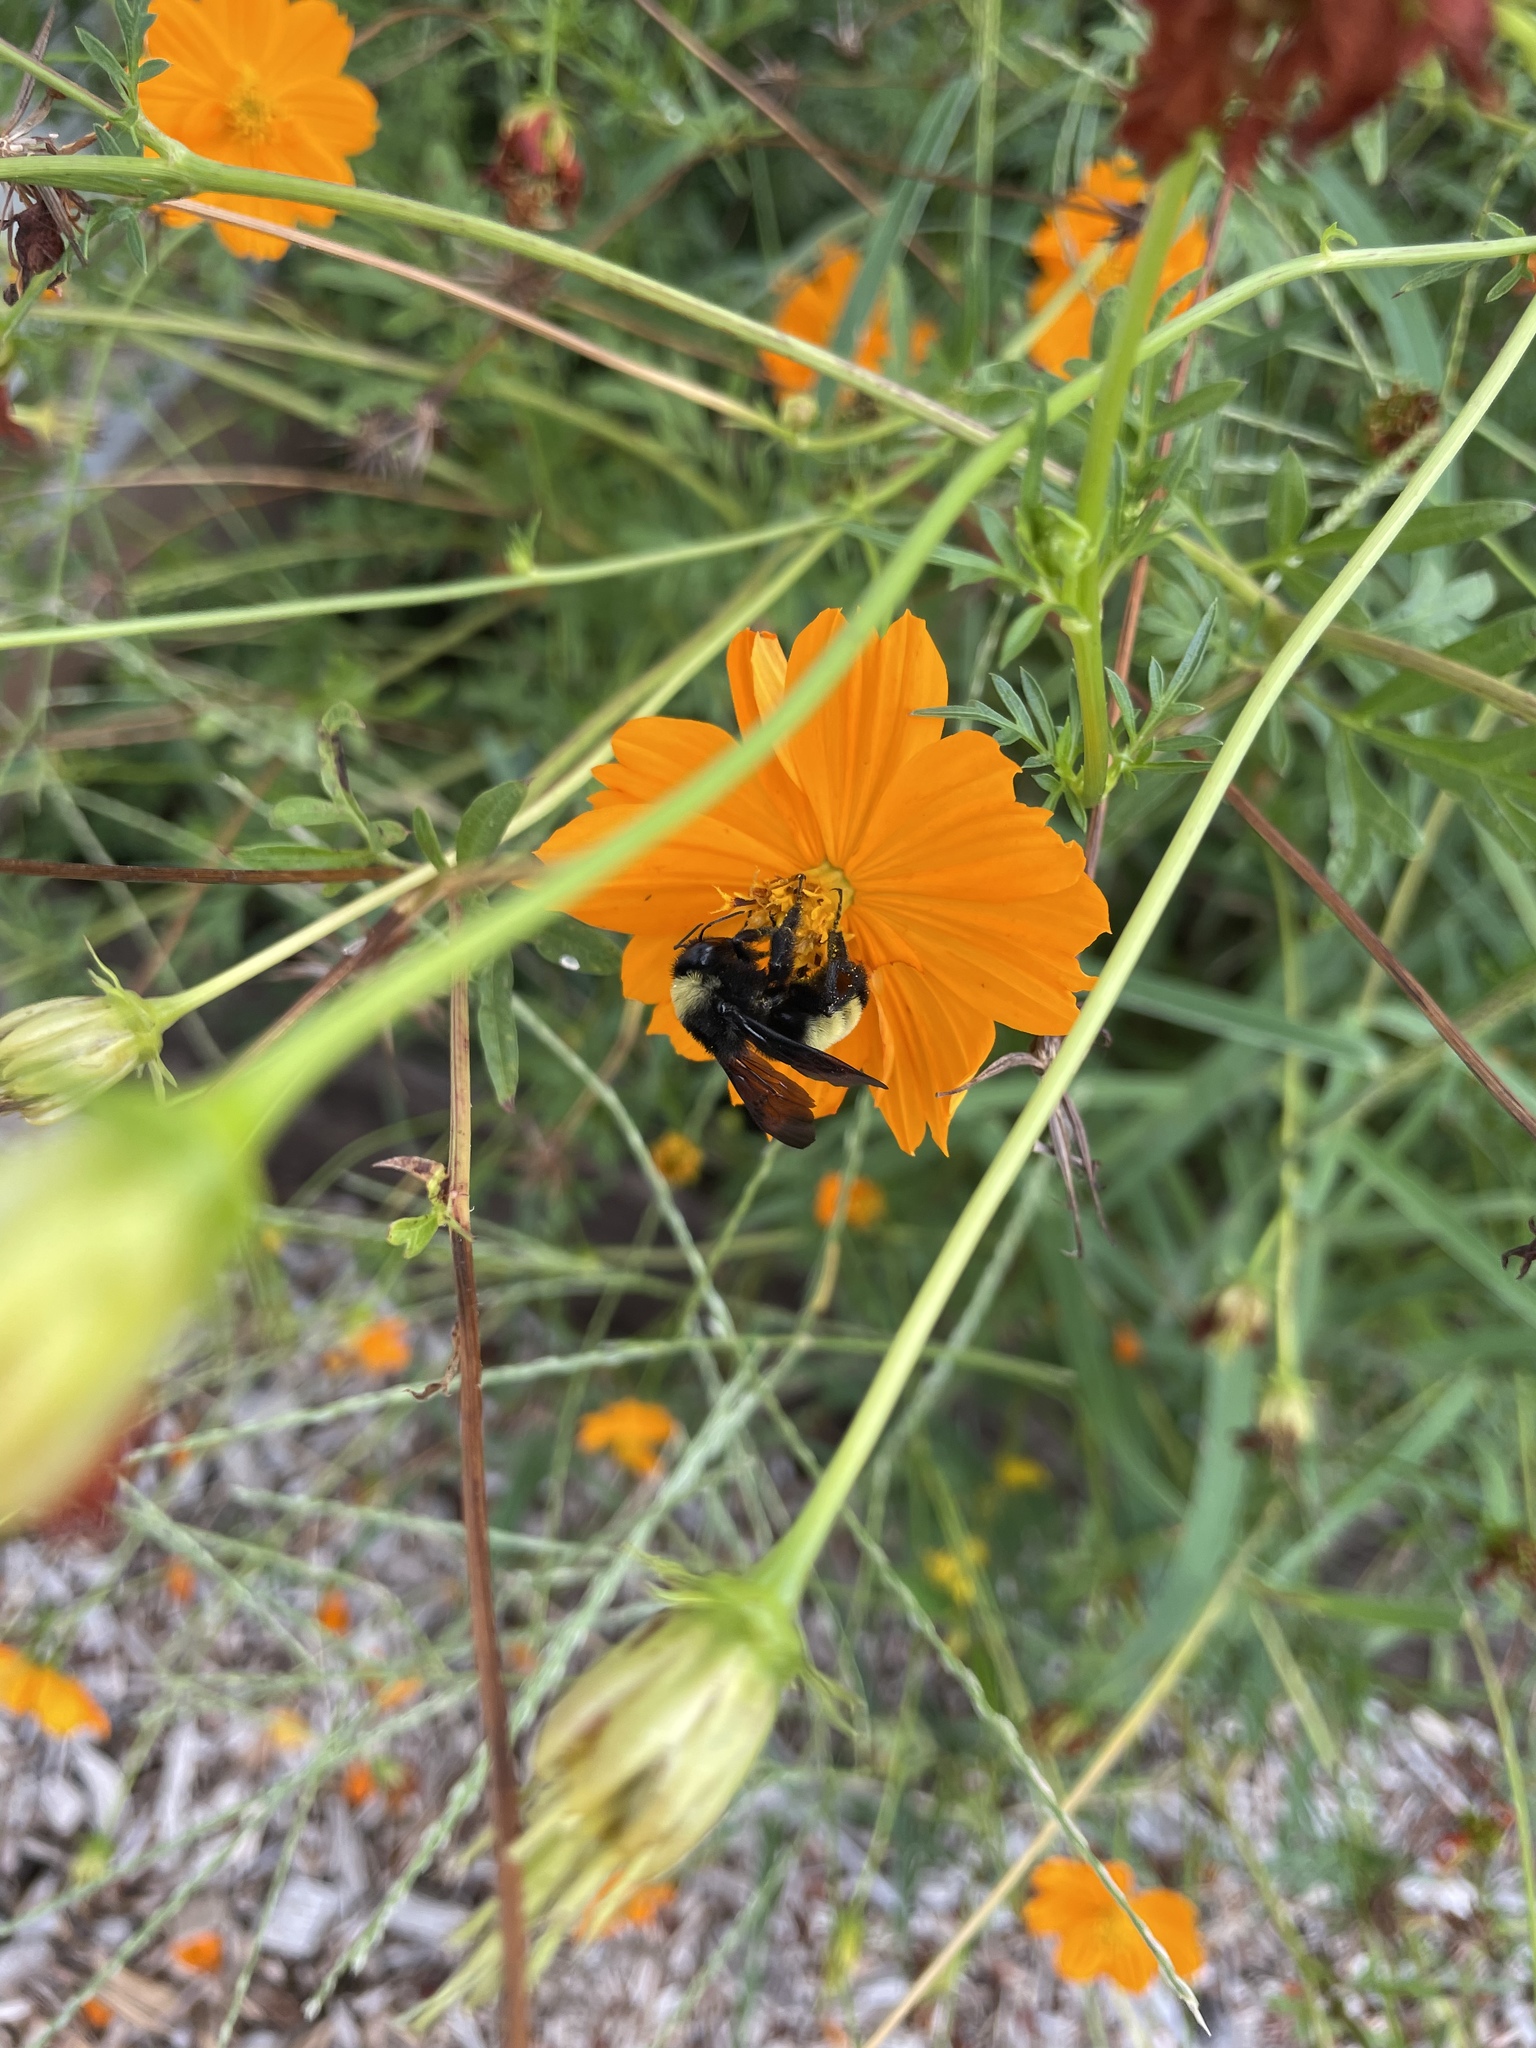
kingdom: Animalia
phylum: Arthropoda
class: Insecta
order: Hymenoptera
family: Apidae
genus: Bombus
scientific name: Bombus pensylvanicus
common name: Bumble bee
